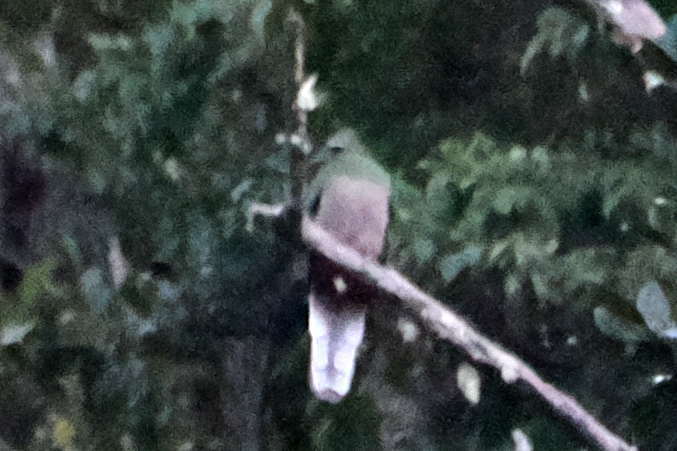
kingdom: Animalia
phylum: Chordata
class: Aves
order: Trogoniformes
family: Trogonidae
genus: Pharomachrus
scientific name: Pharomachrus mocinno
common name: Resplendent quetzal
